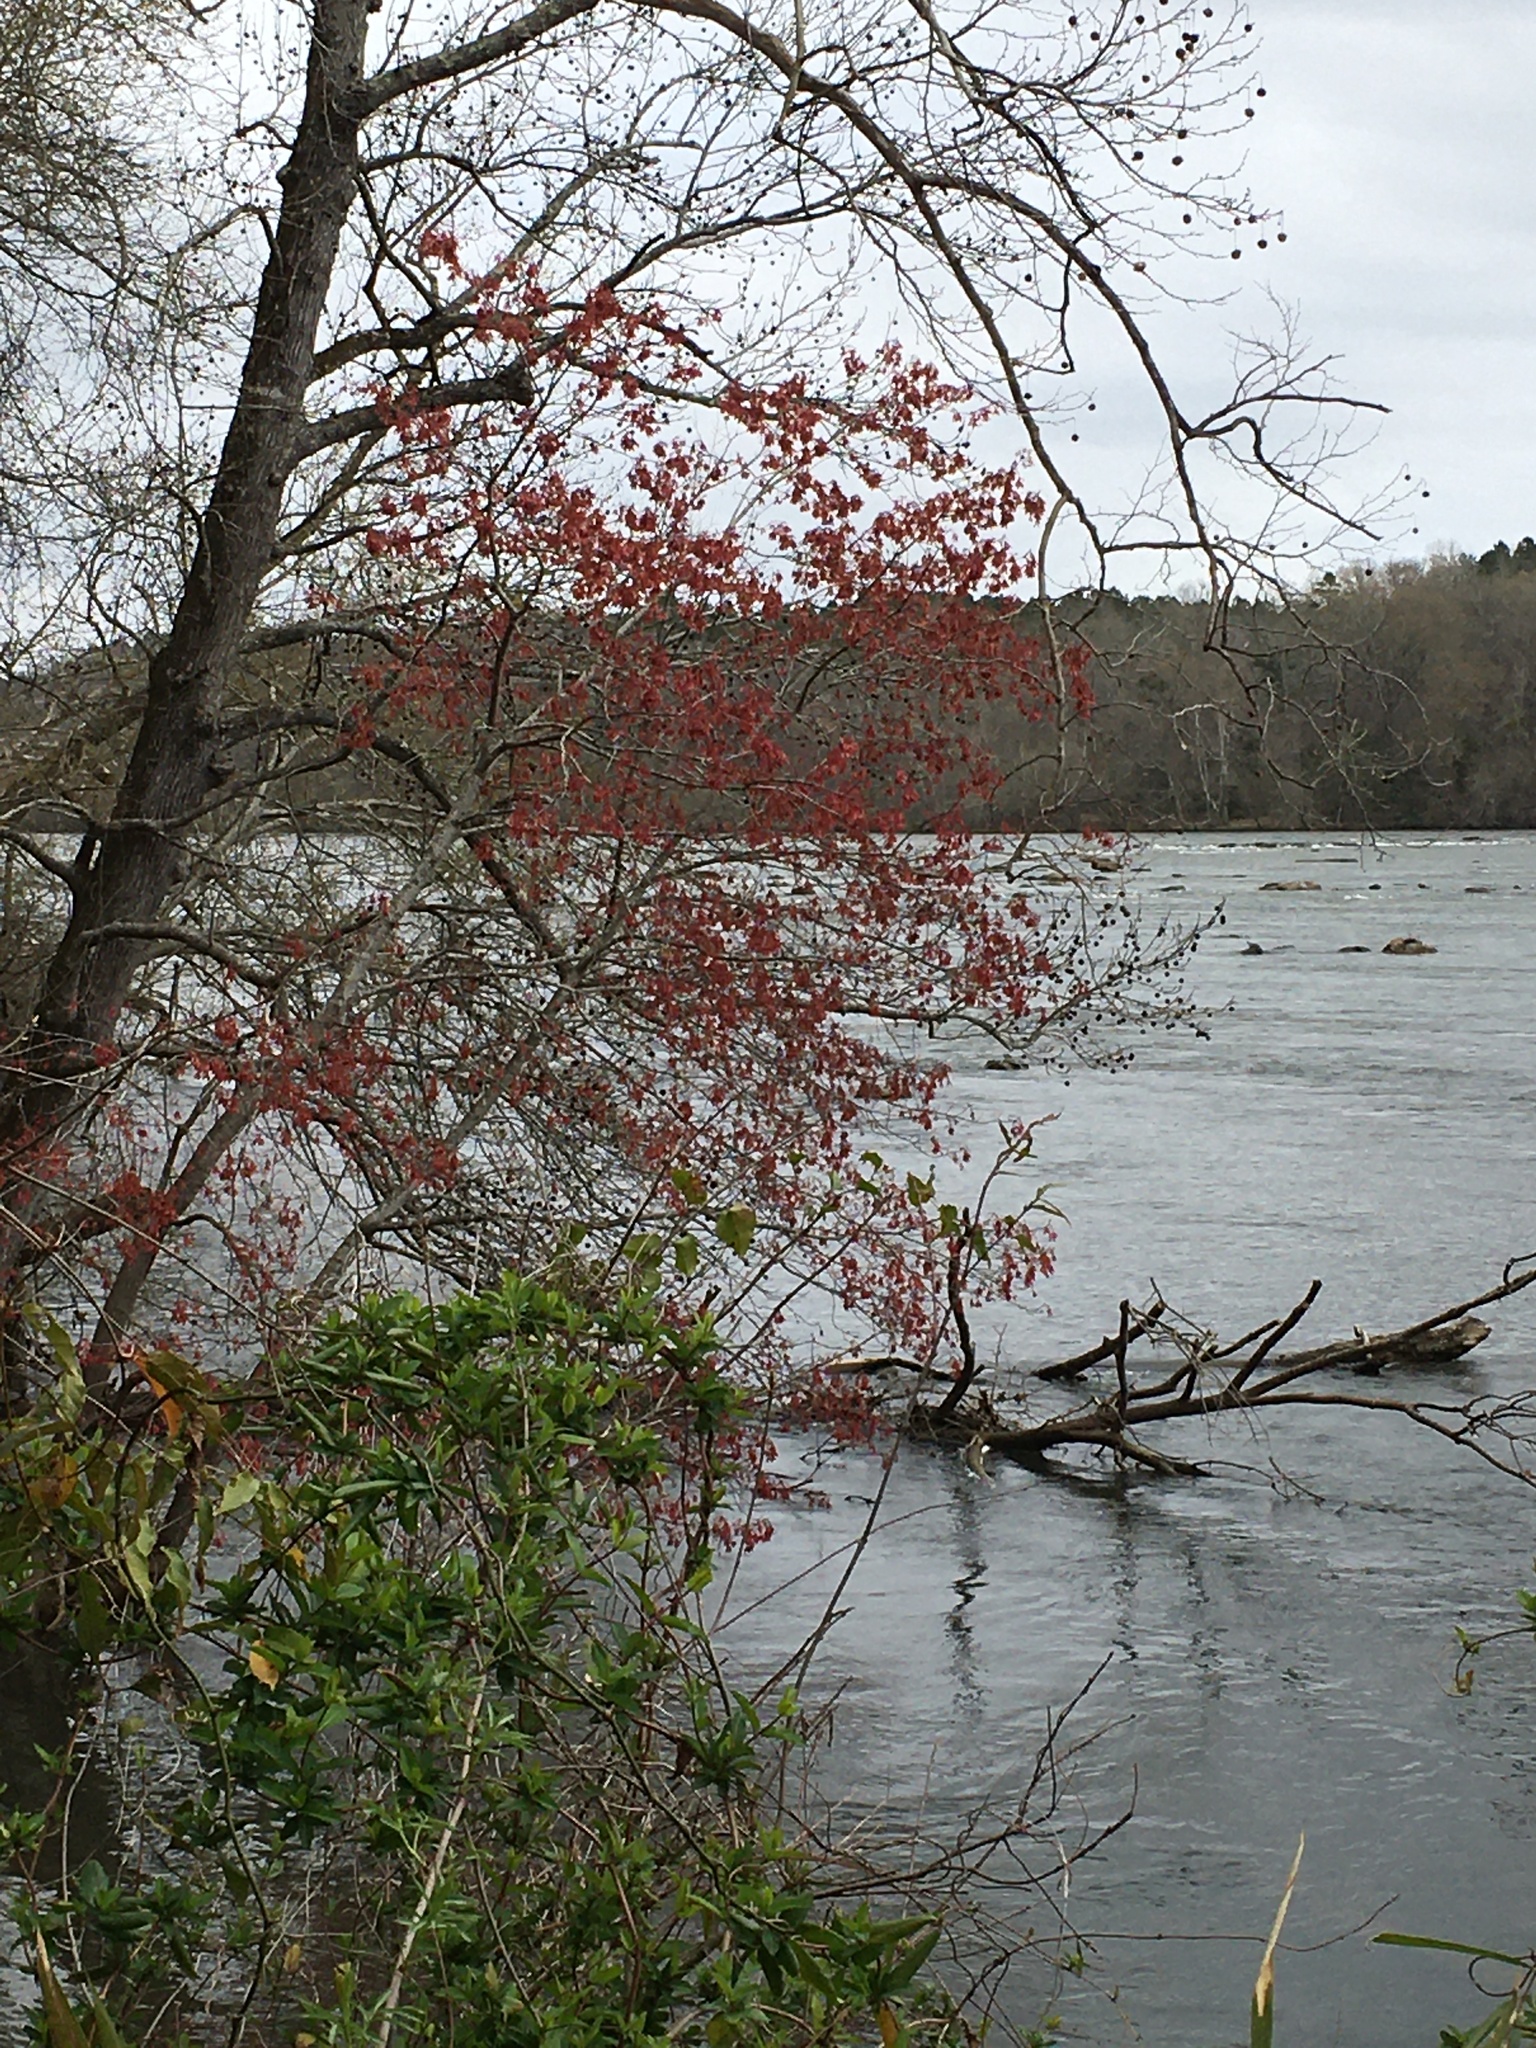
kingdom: Plantae
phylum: Tracheophyta
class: Magnoliopsida
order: Sapindales
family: Sapindaceae
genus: Acer
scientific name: Acer rubrum
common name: Red maple
